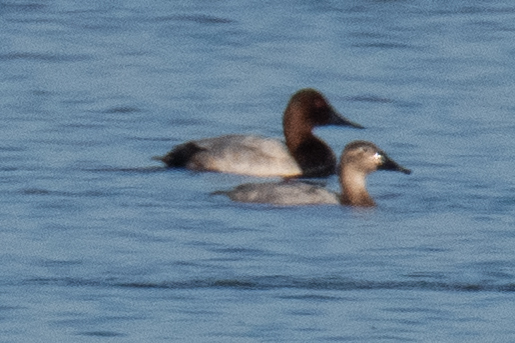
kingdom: Animalia
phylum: Chordata
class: Aves
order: Anseriformes
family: Anatidae
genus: Aythya
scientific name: Aythya valisineria
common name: Canvasback
